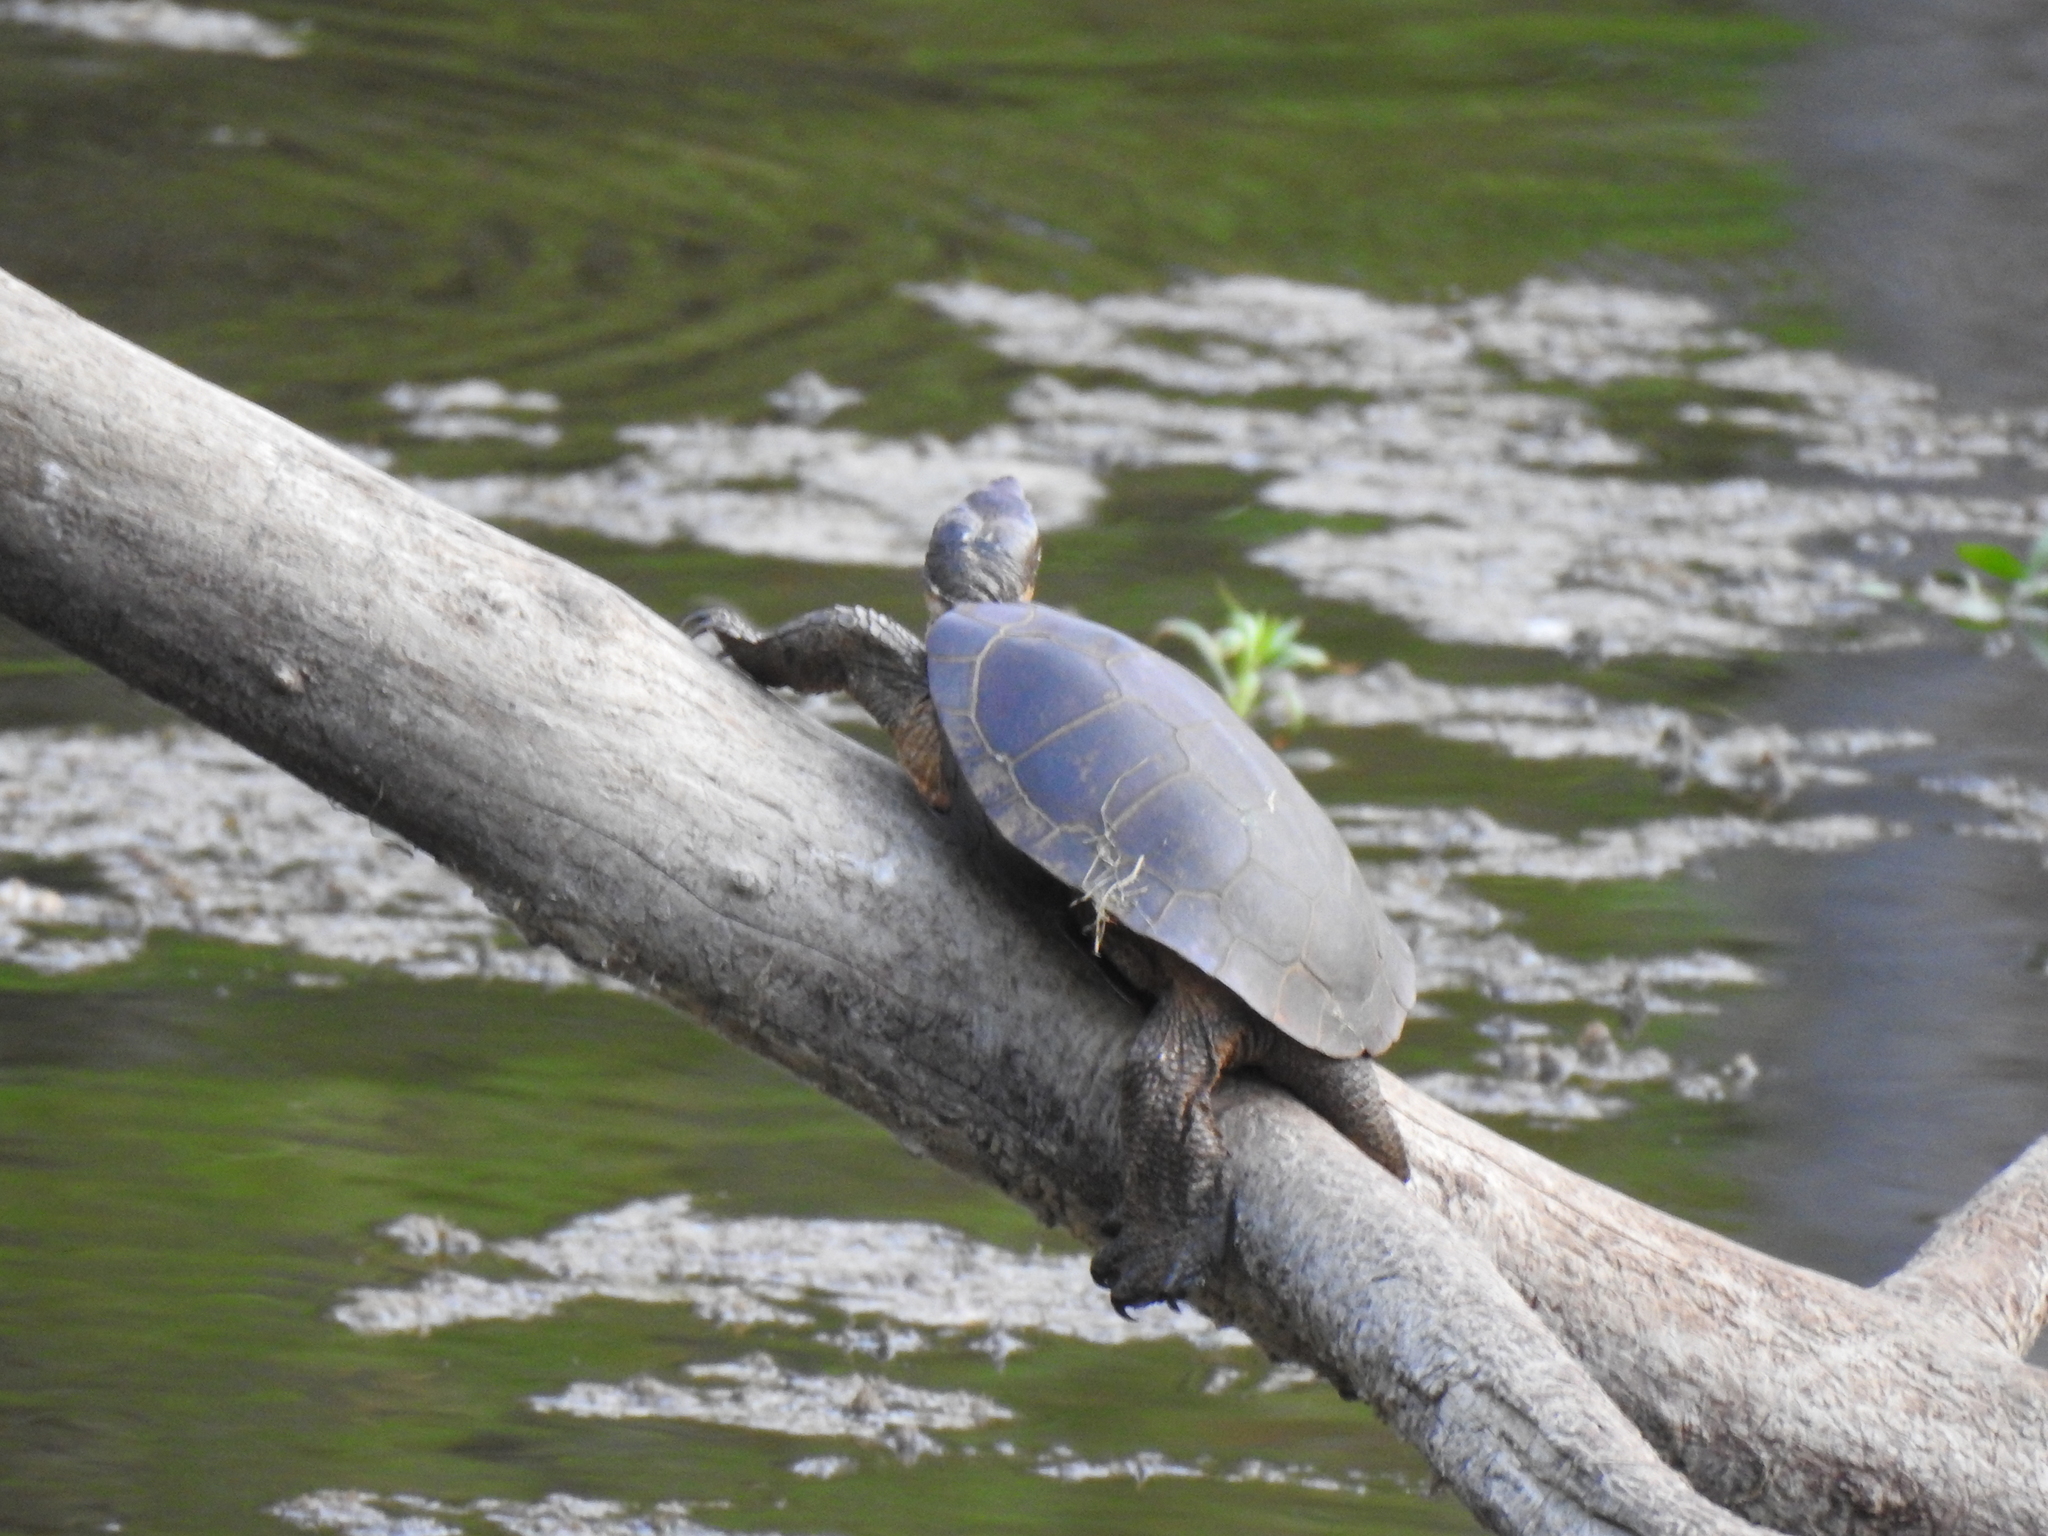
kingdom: Animalia
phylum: Chordata
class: Testudines
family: Emydidae
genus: Actinemys
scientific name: Actinemys marmorata
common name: Western pond turtle
